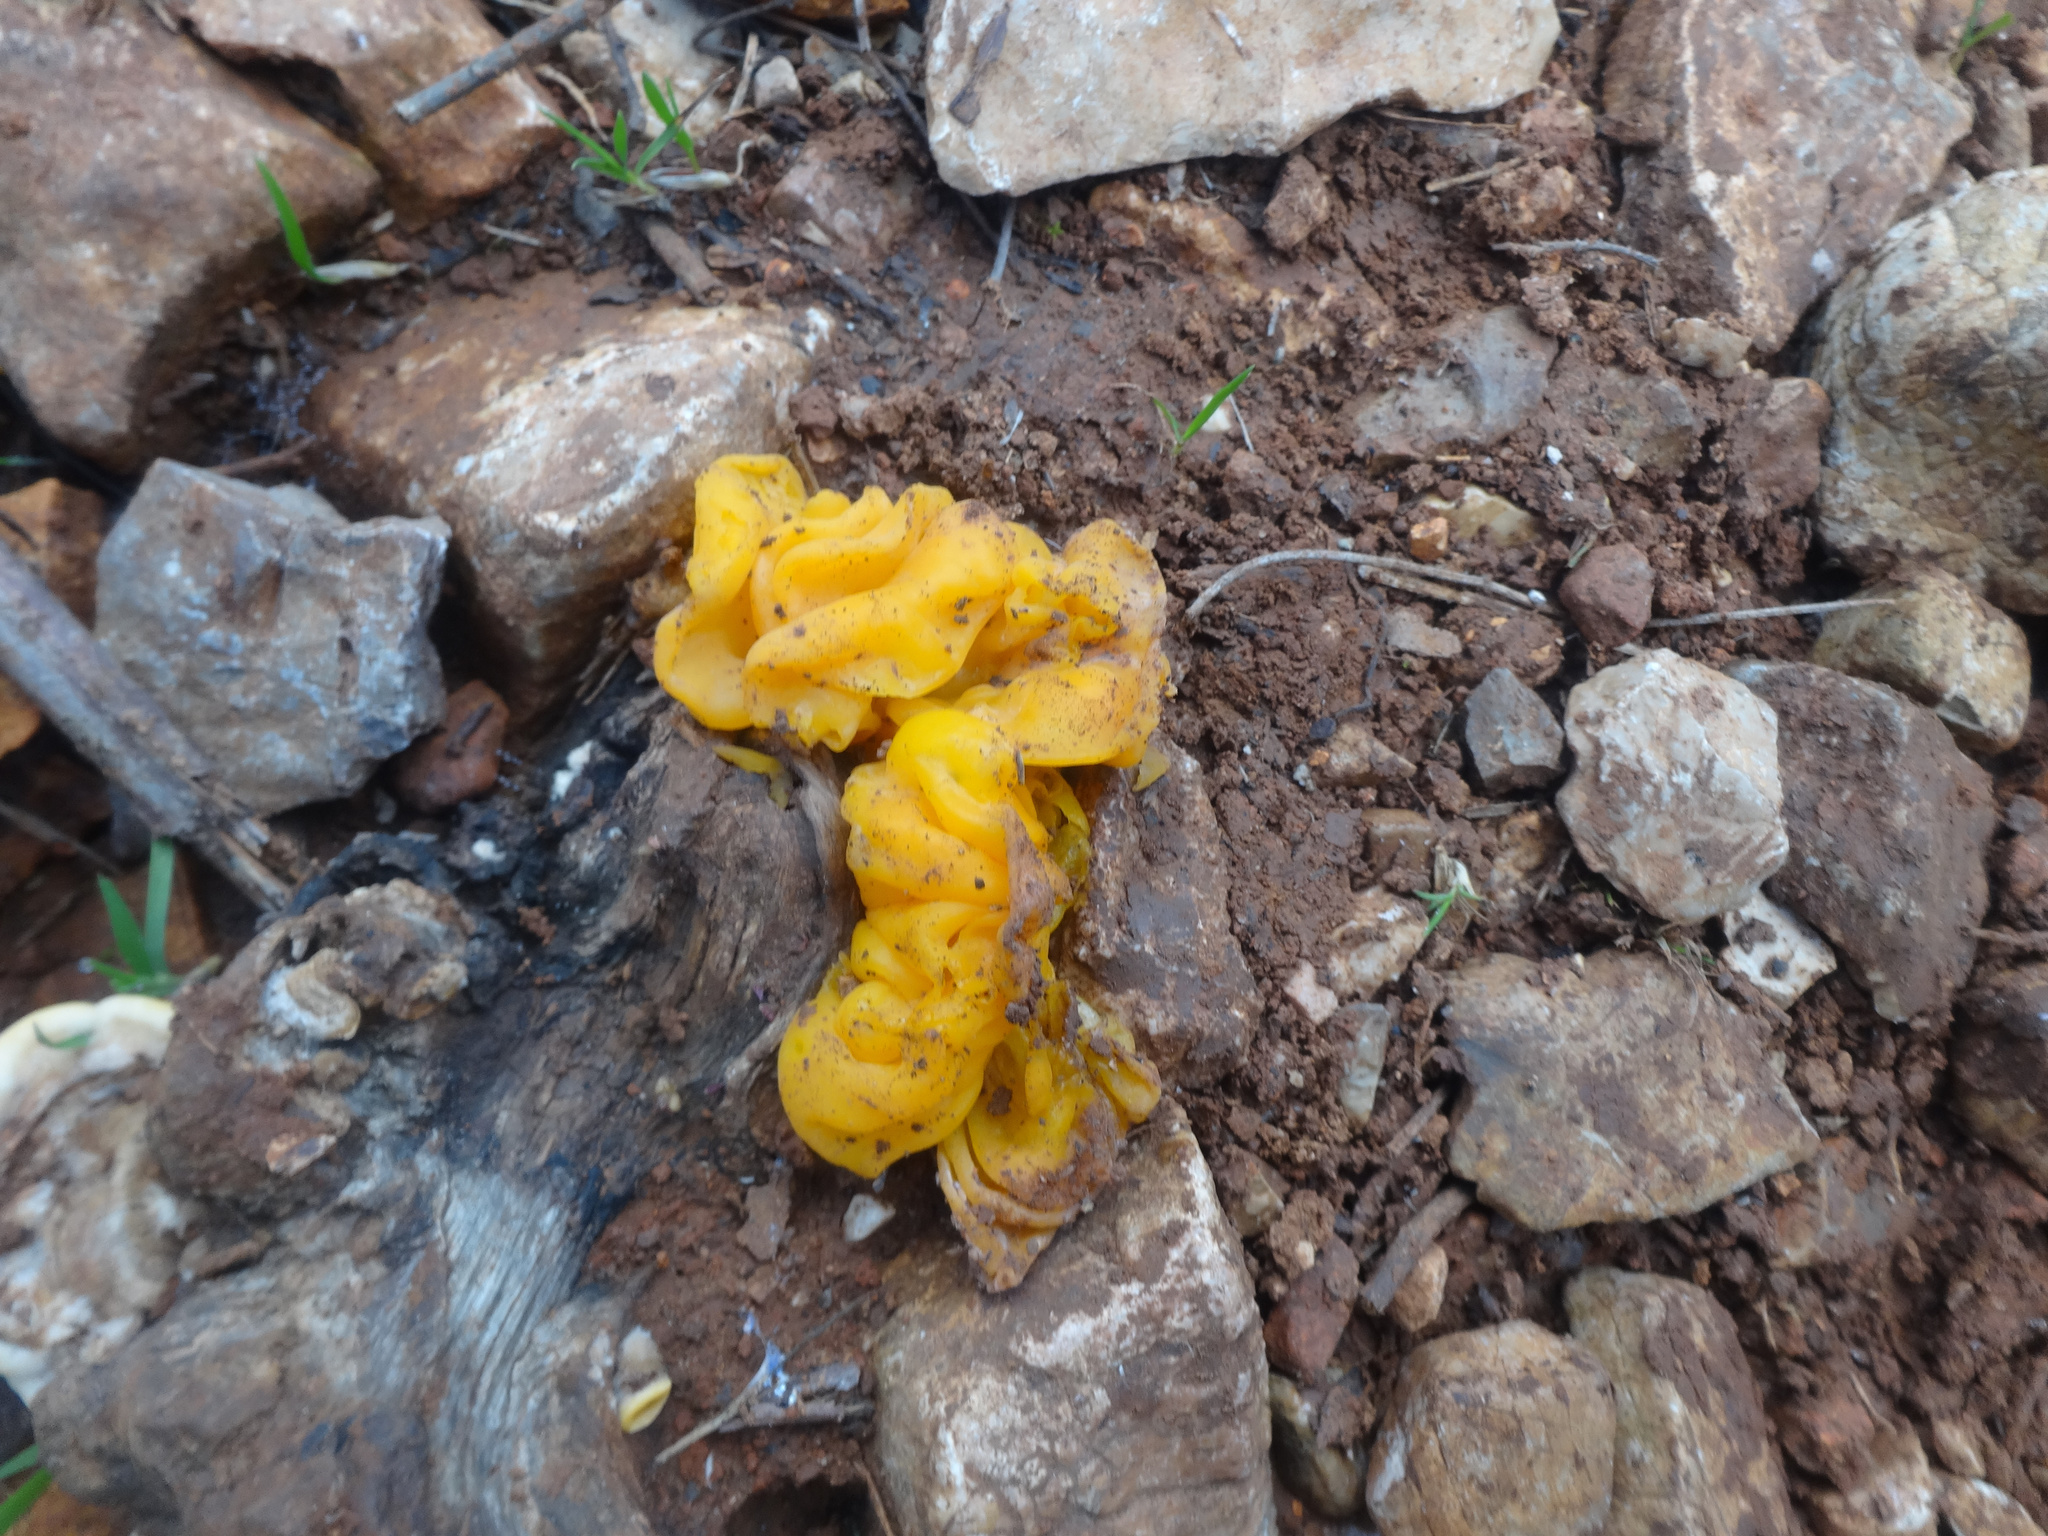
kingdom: Fungi
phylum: Basidiomycota
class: Tremellomycetes
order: Tremellales
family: Naemateliaceae
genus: Naematelia
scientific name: Naematelia aurantia
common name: Golden ear
